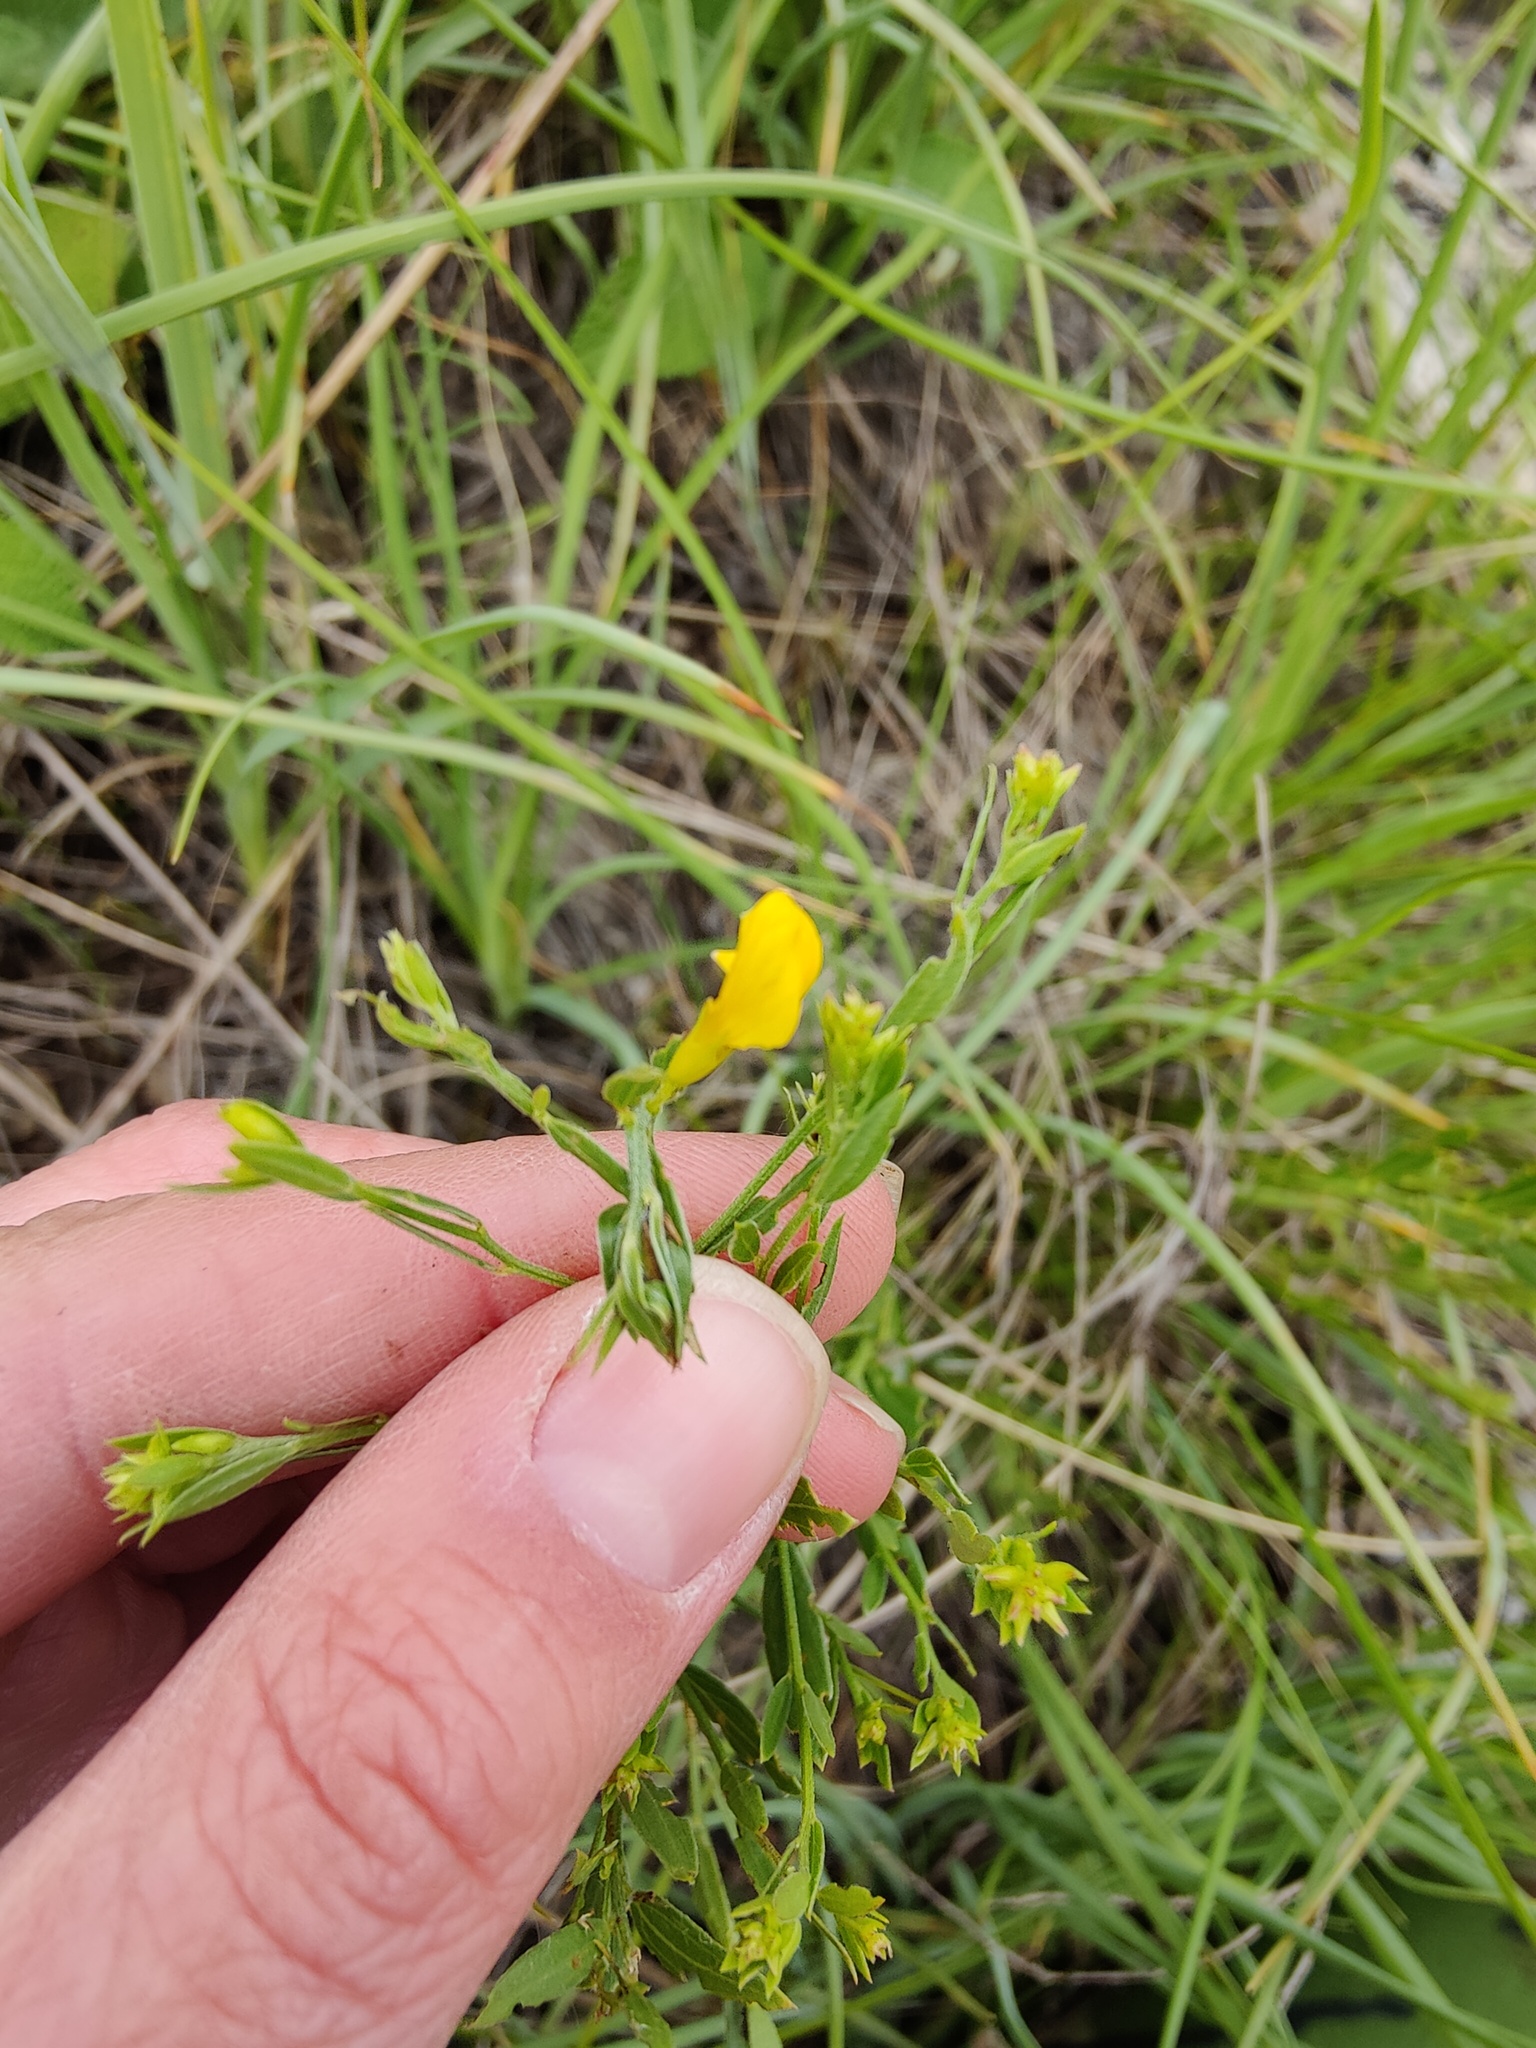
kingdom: Plantae
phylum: Tracheophyta
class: Magnoliopsida
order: Fabales
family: Fabaceae
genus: Genista
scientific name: Genista tinctoria
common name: Dyer's greenweed
